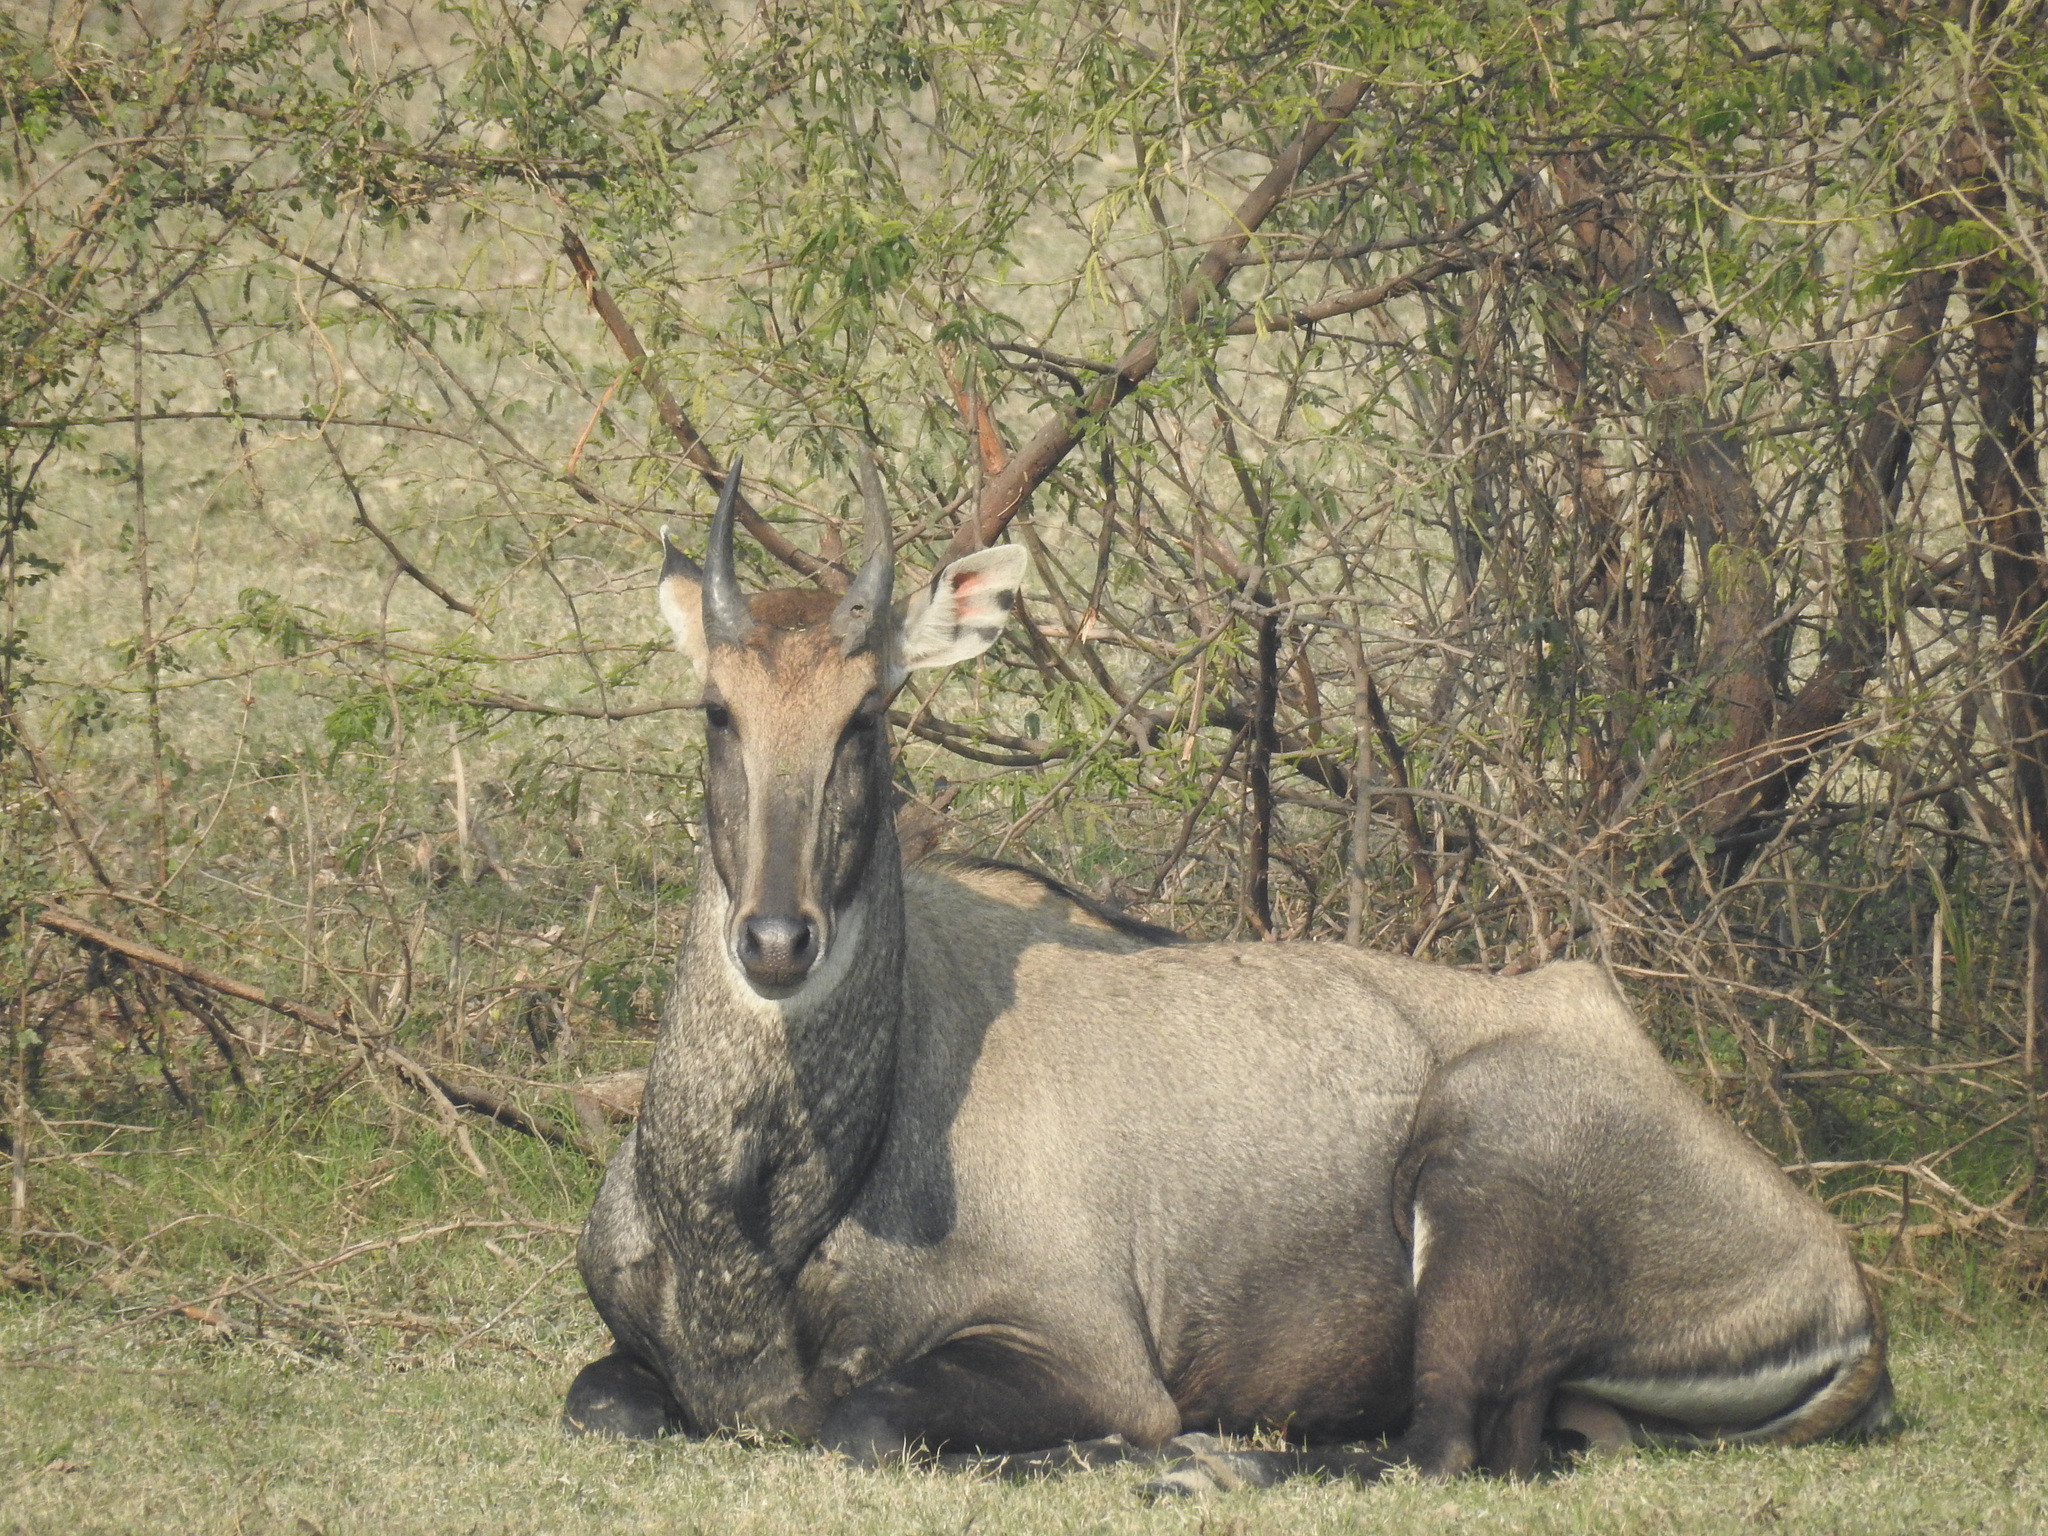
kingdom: Animalia
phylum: Chordata
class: Mammalia
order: Artiodactyla
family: Bovidae
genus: Boselaphus
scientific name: Boselaphus tragocamelus
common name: Nilgai
